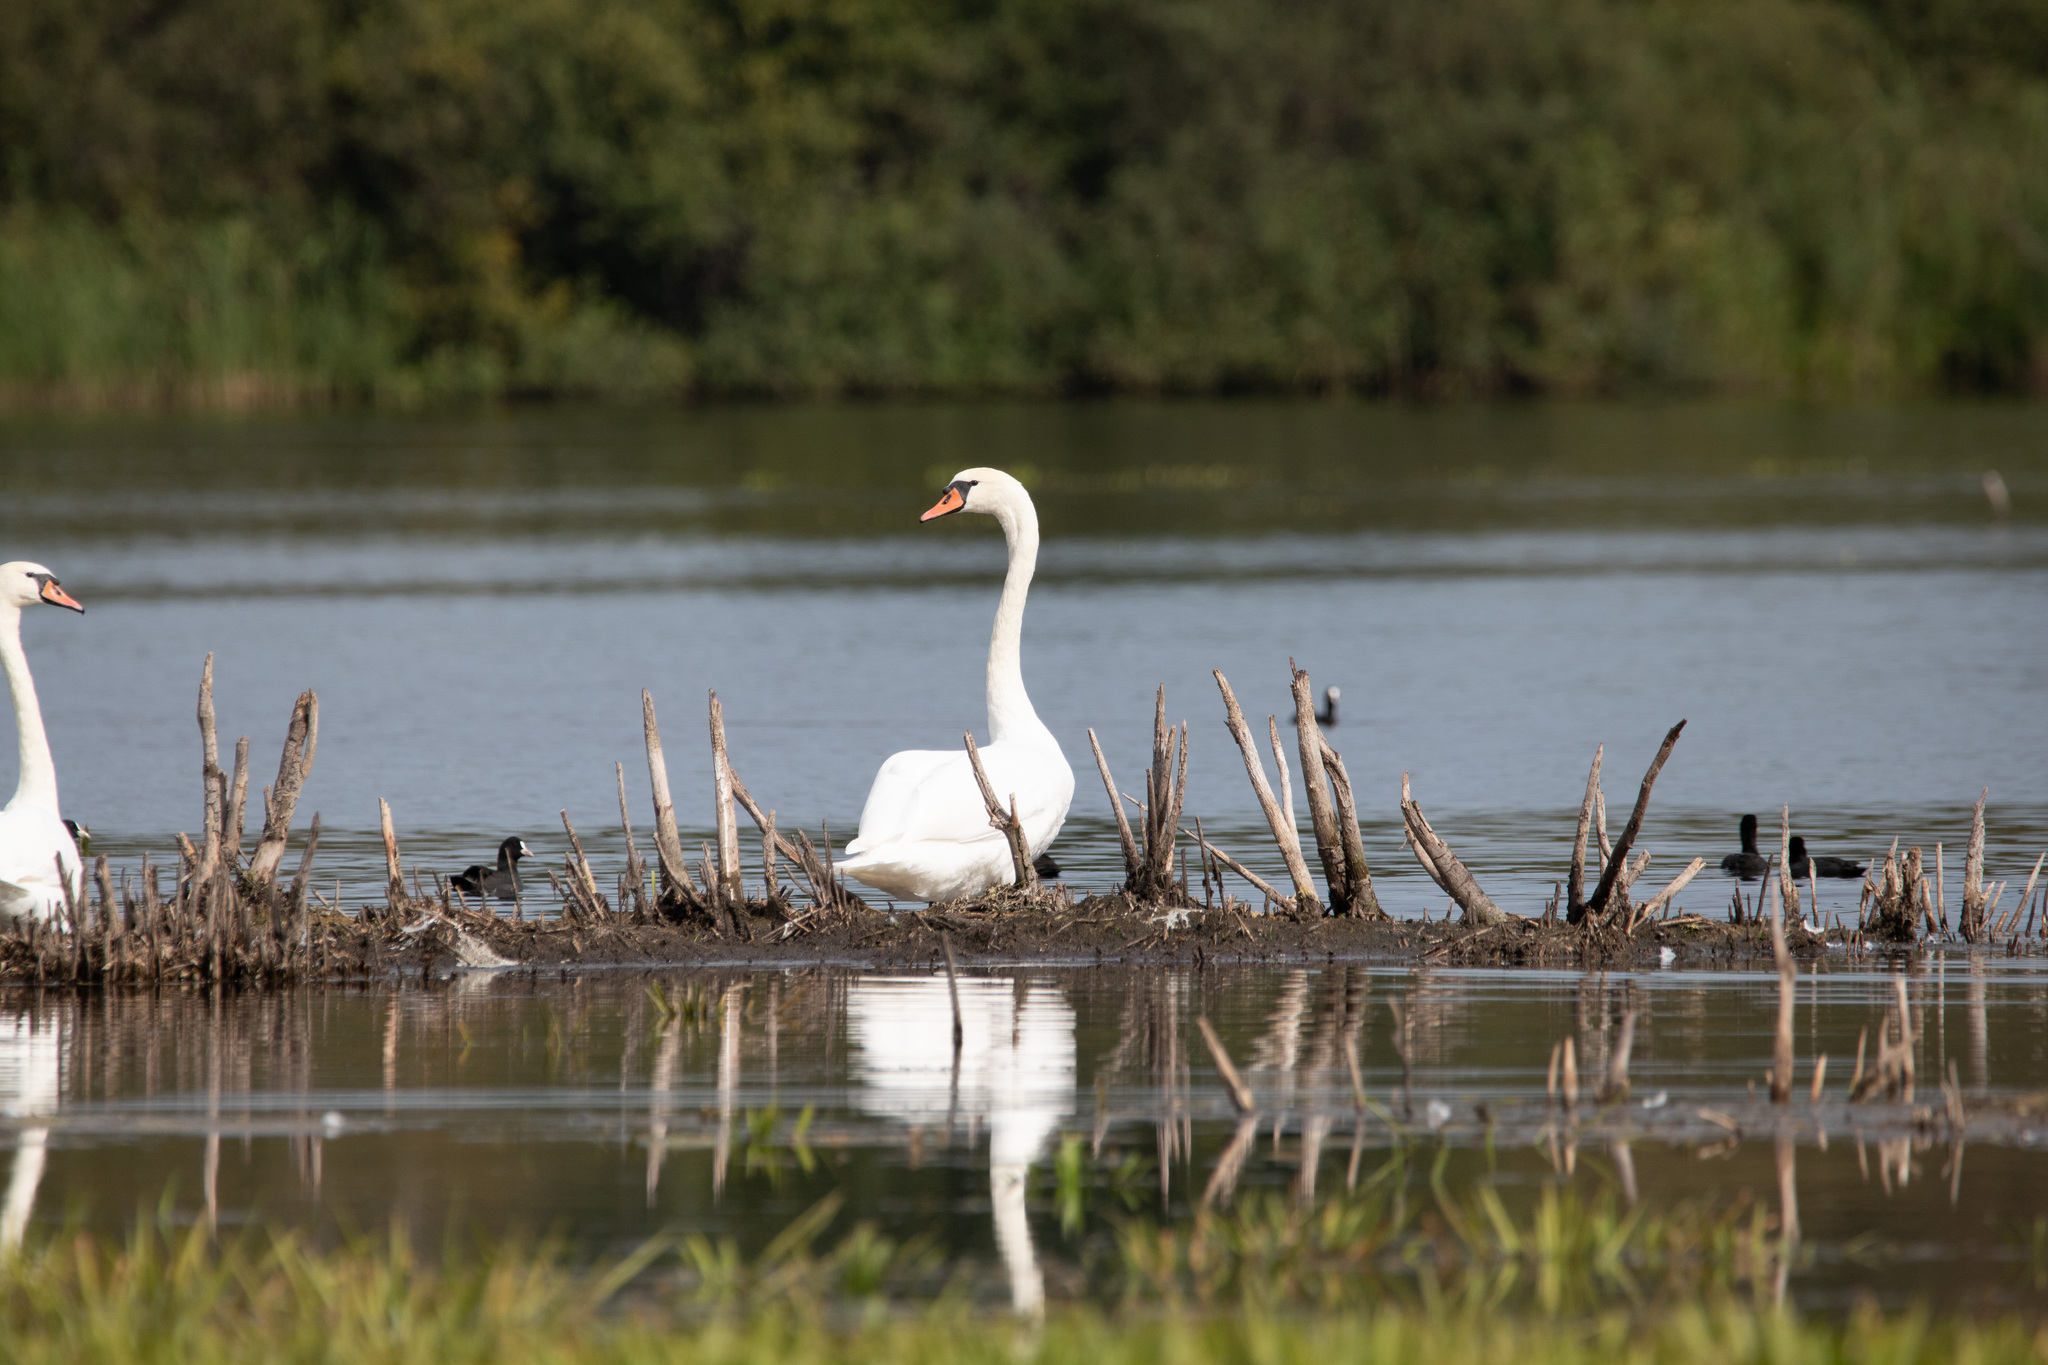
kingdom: Animalia
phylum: Chordata
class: Aves
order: Anseriformes
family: Anatidae
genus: Cygnus
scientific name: Cygnus olor
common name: Mute swan
